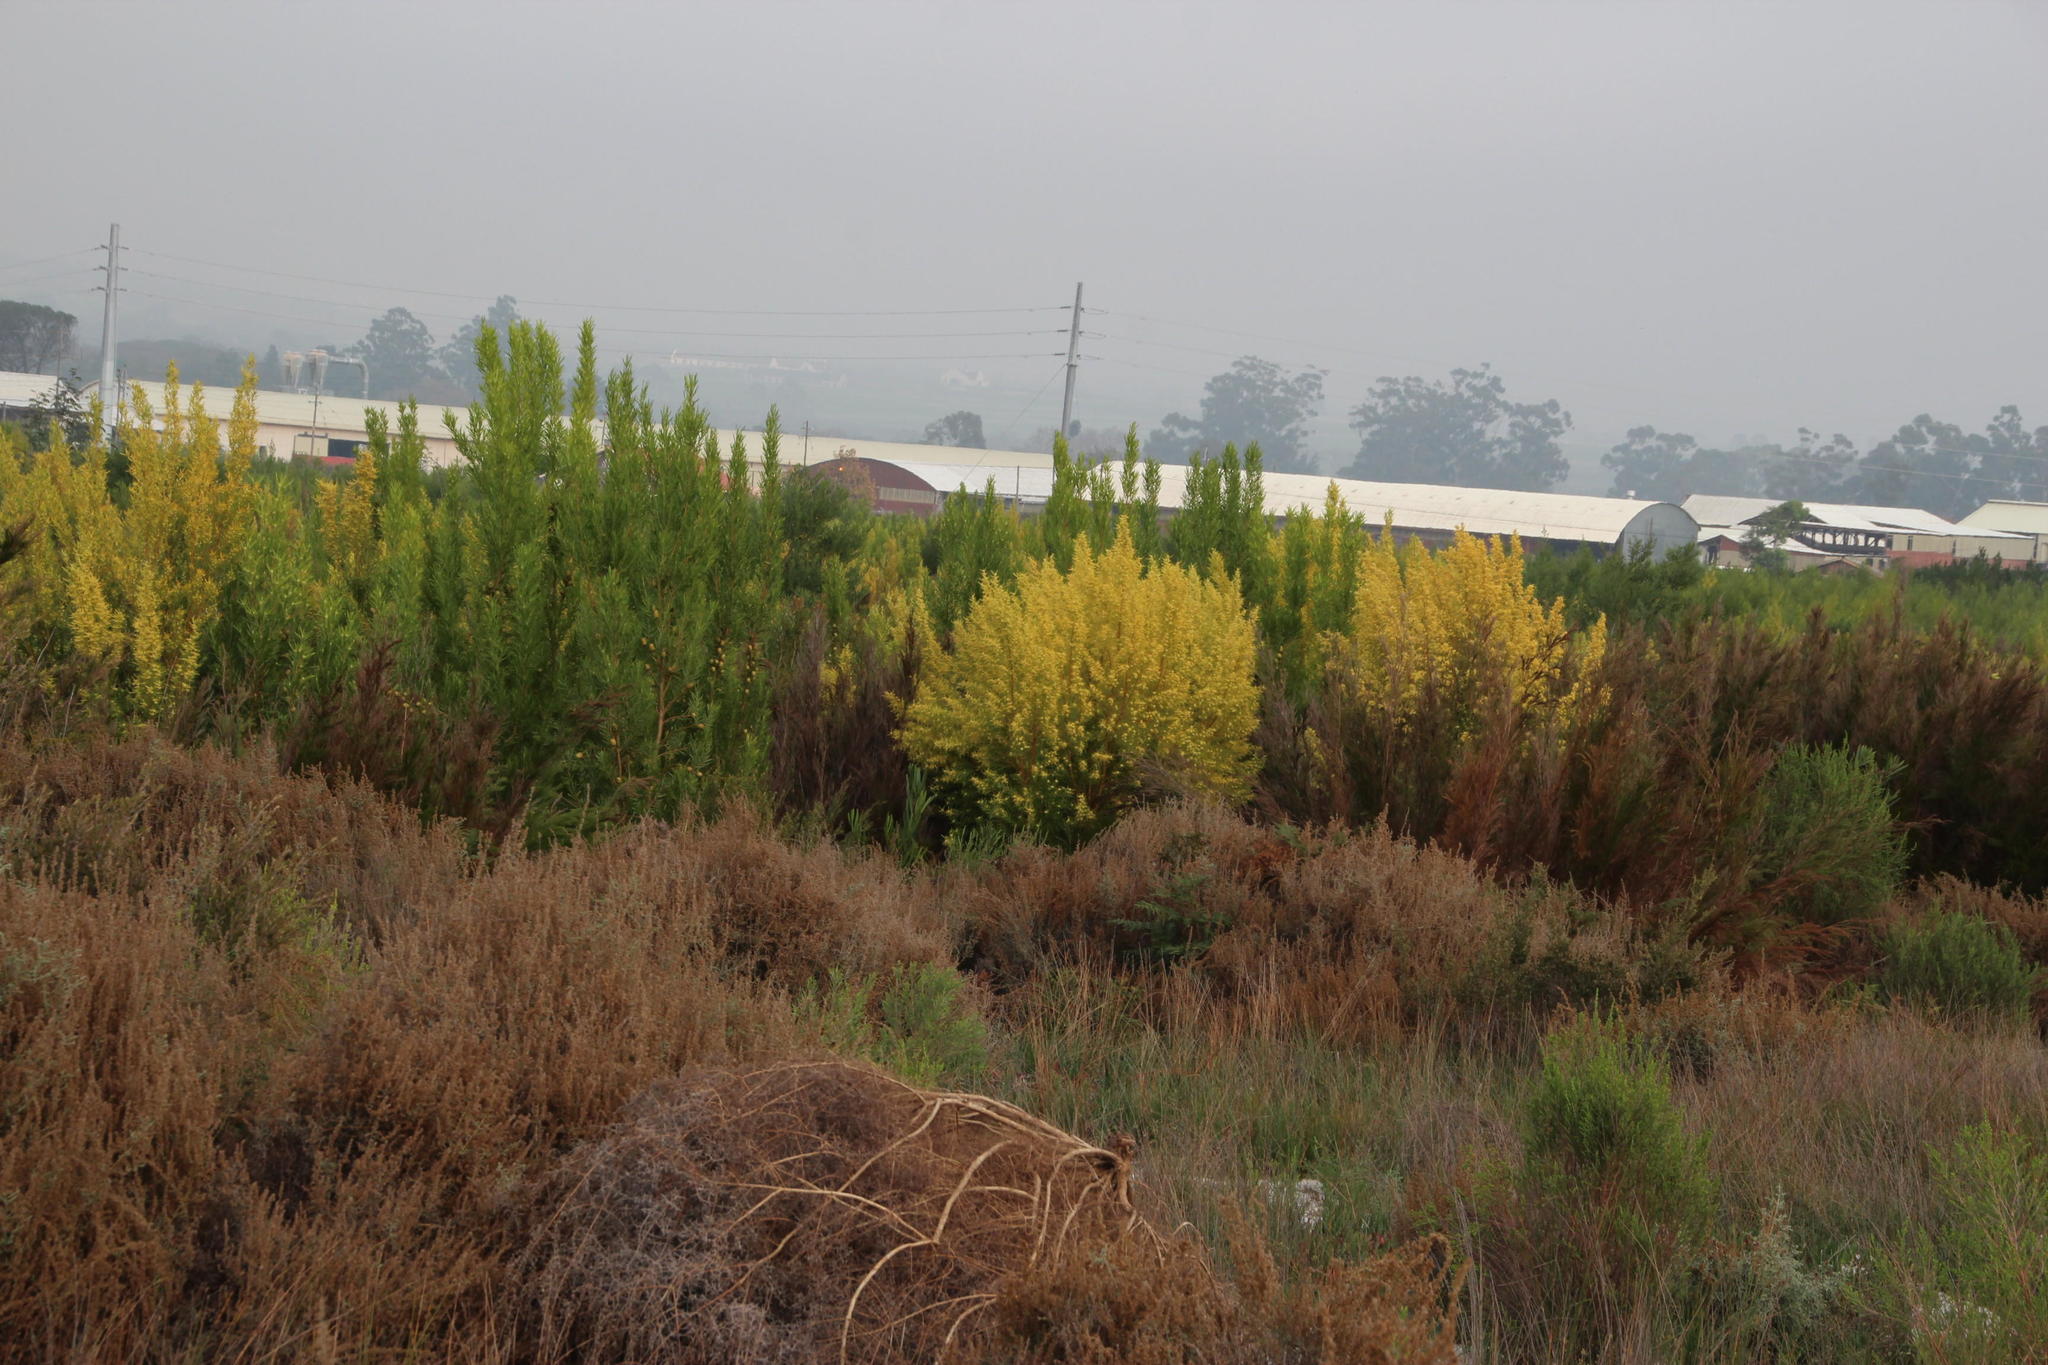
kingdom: Plantae
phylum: Tracheophyta
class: Magnoliopsida
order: Proteales
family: Proteaceae
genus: Leucadendron
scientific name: Leucadendron salicifolium
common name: Common stream conebush
